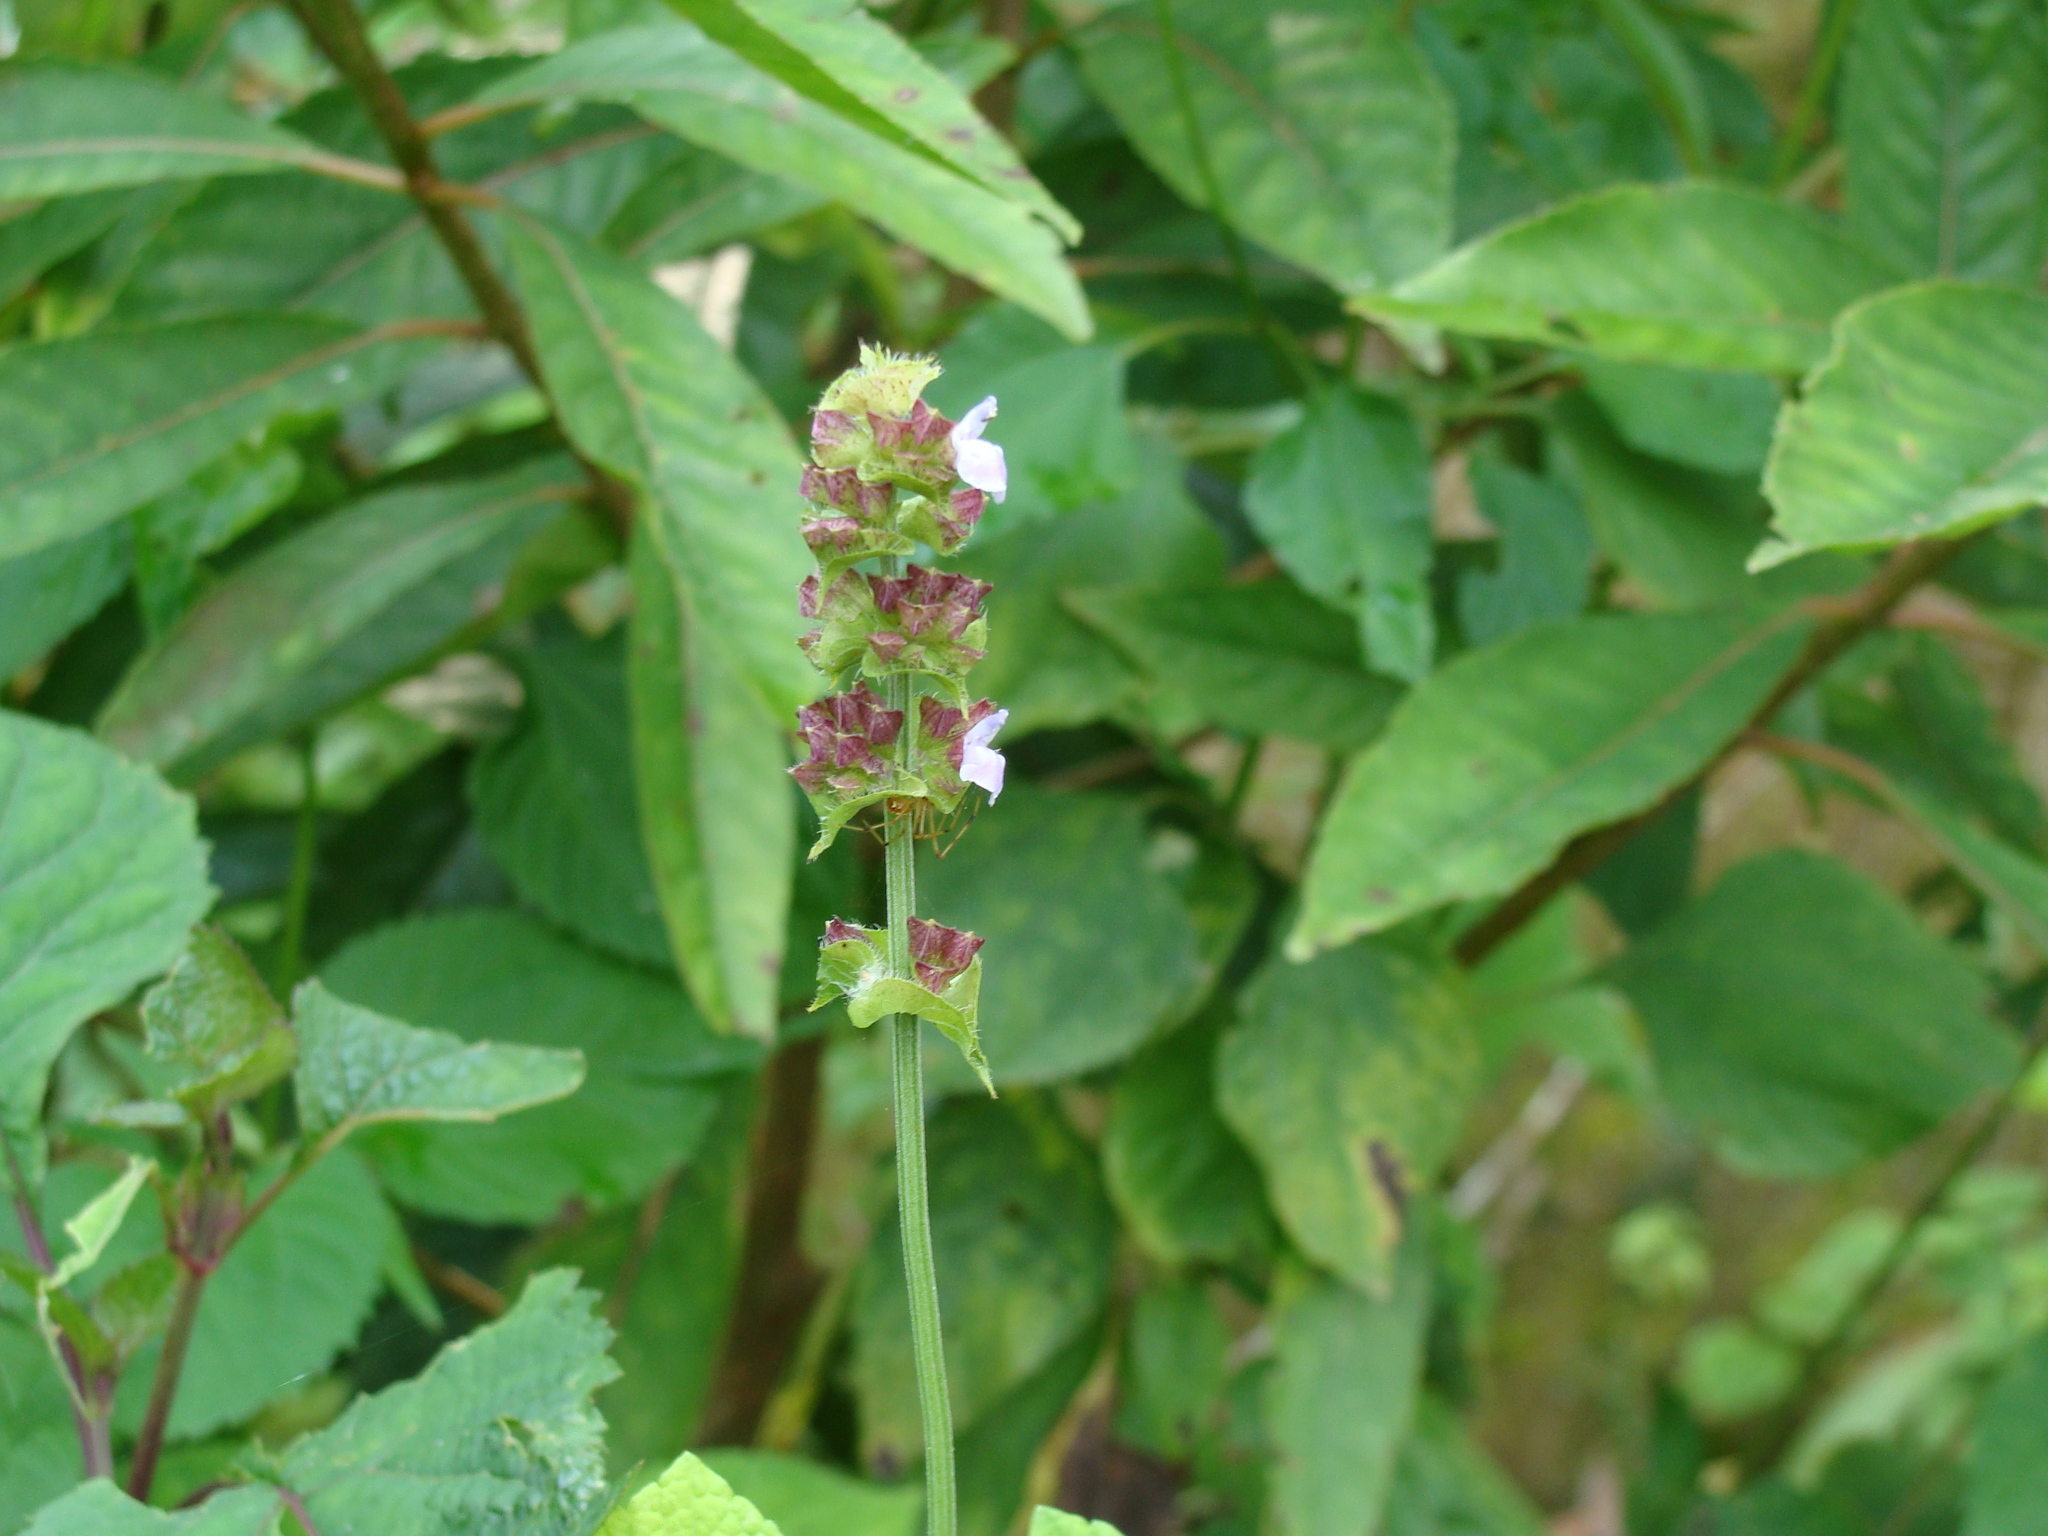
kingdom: Plantae
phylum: Tracheophyta
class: Magnoliopsida
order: Lamiales
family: Lamiaceae
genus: Salvia
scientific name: Salvia mocinoi
